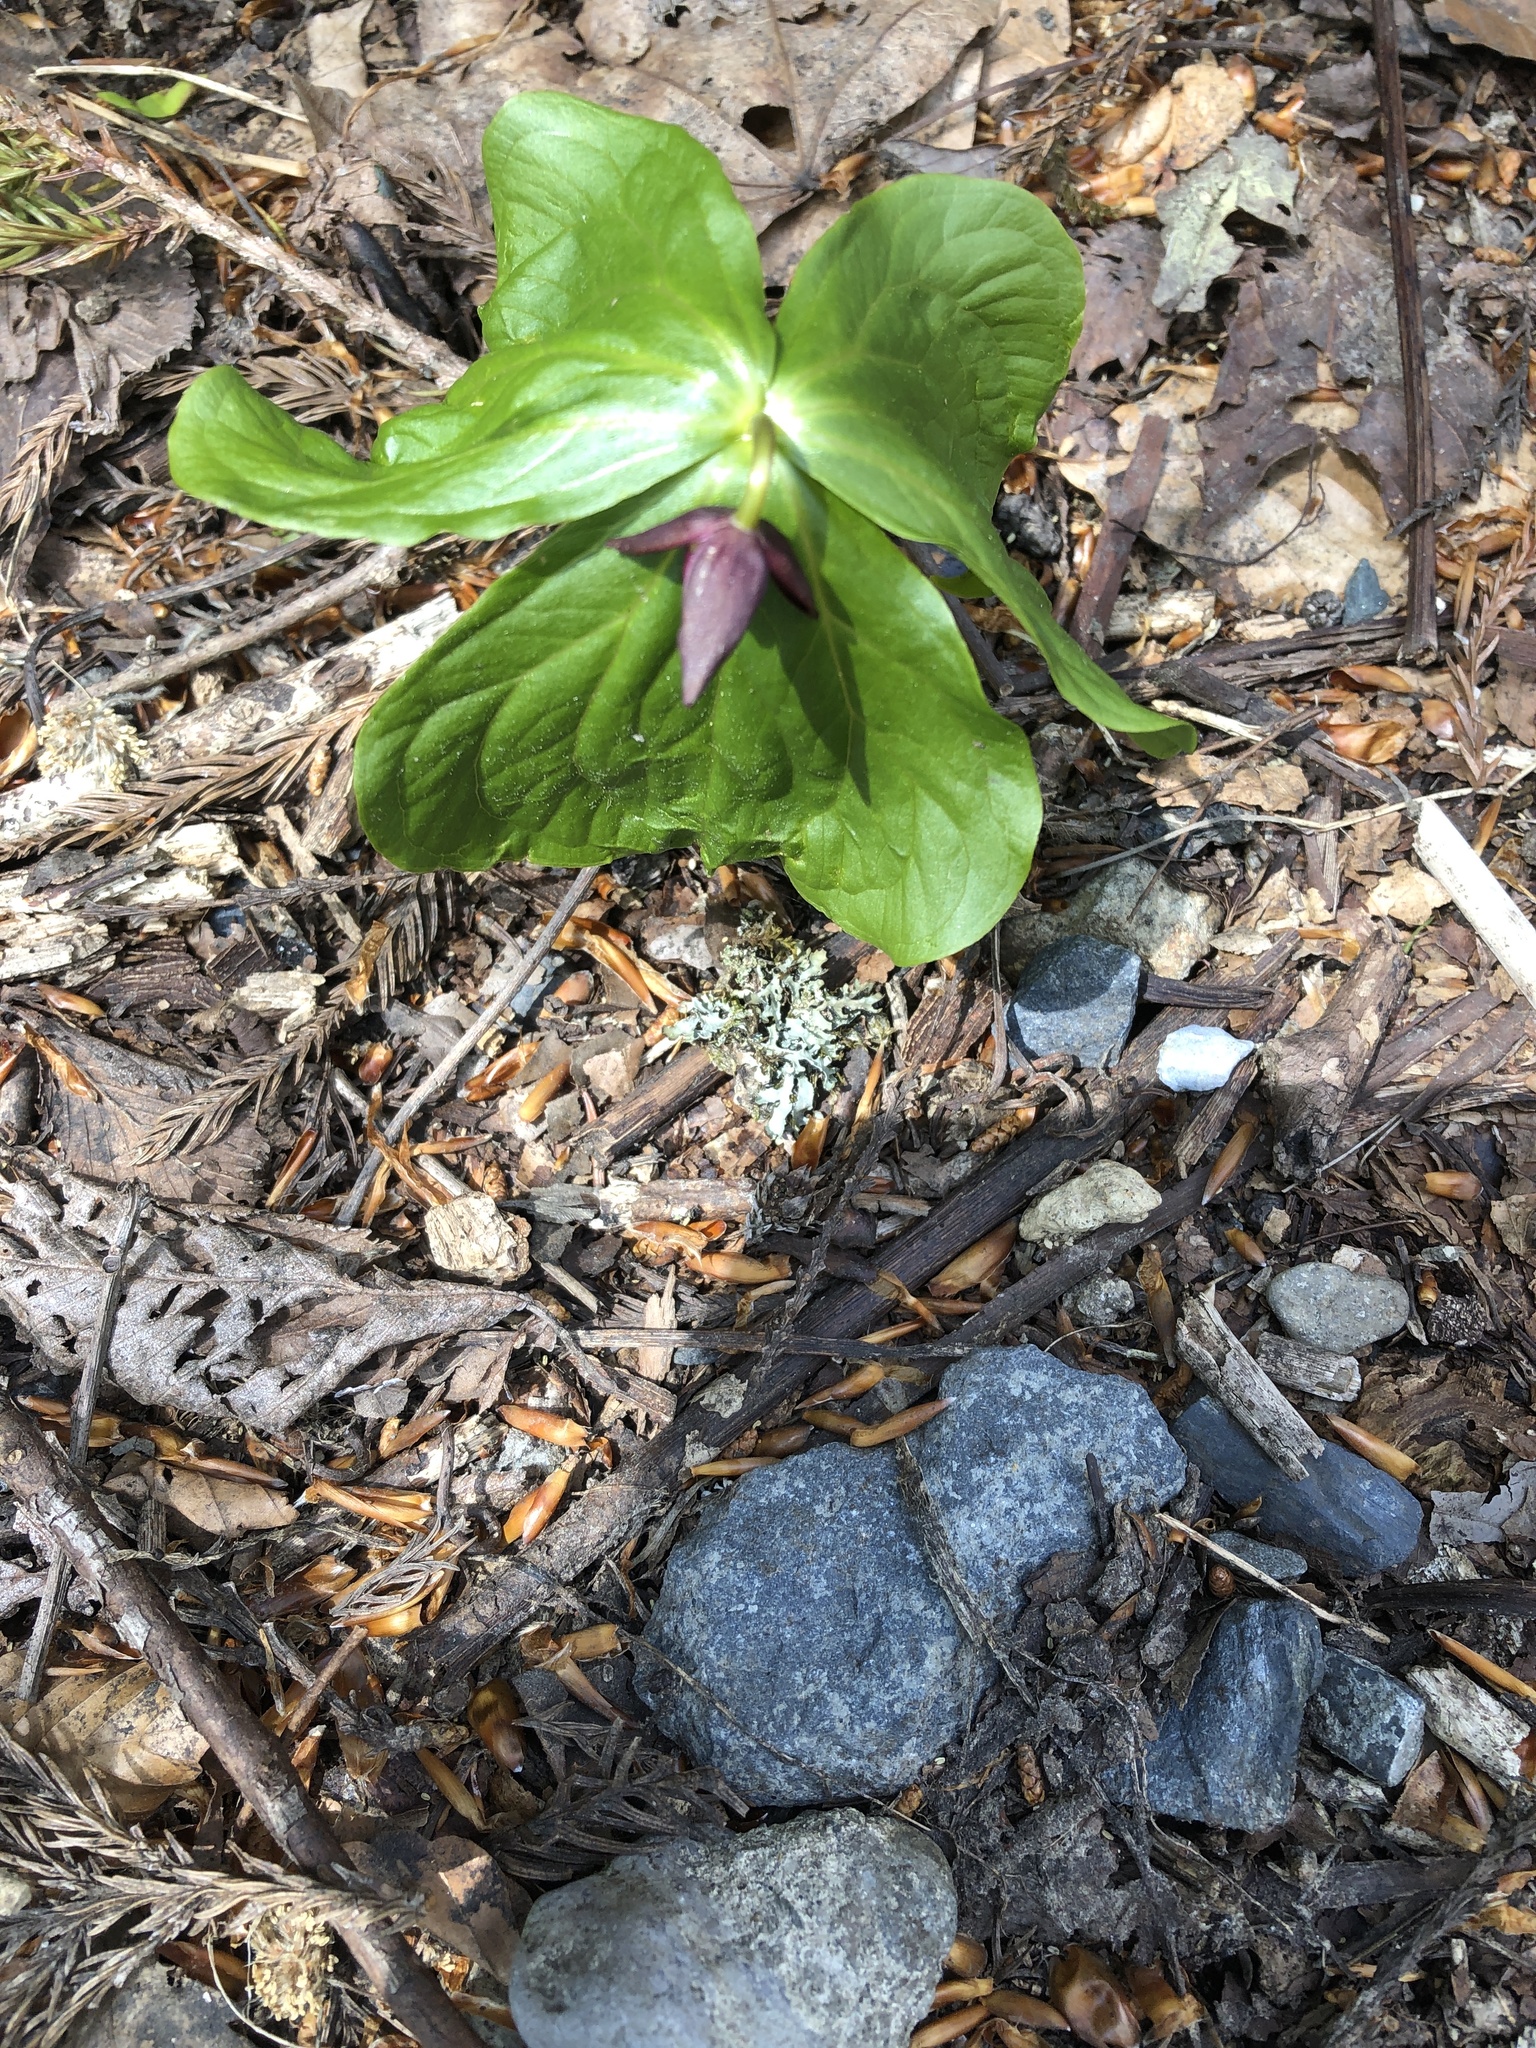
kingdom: Plantae
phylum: Tracheophyta
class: Liliopsida
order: Liliales
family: Melanthiaceae
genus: Trillium
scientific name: Trillium apetalon
